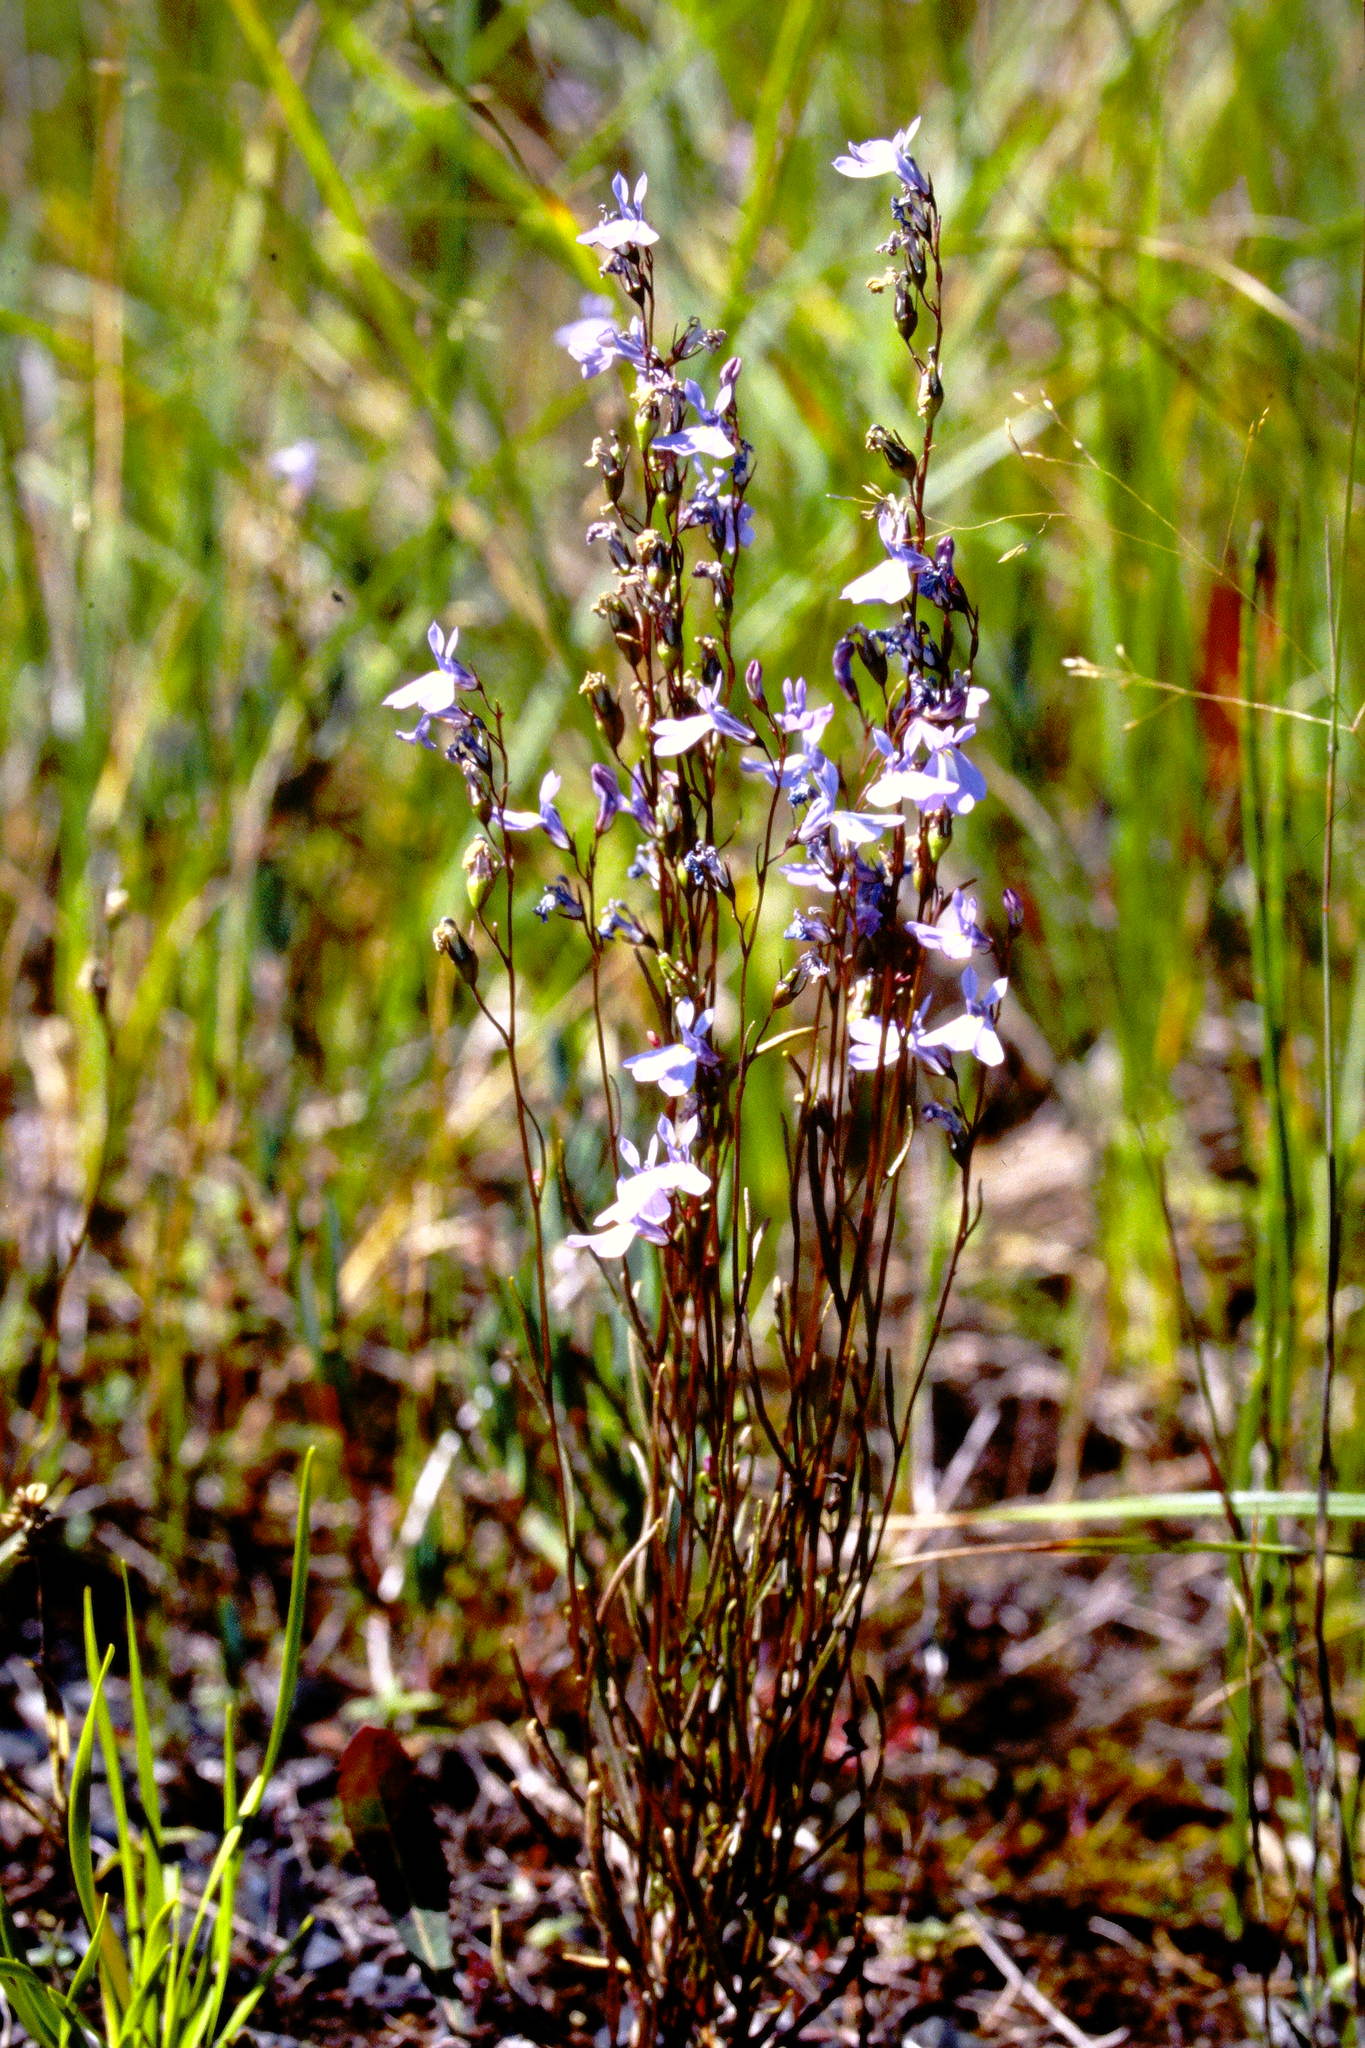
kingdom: Plantae
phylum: Tracheophyta
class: Magnoliopsida
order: Asterales
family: Campanulaceae
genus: Lobelia
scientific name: Lobelia kalmii
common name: Kalm's lobelia
